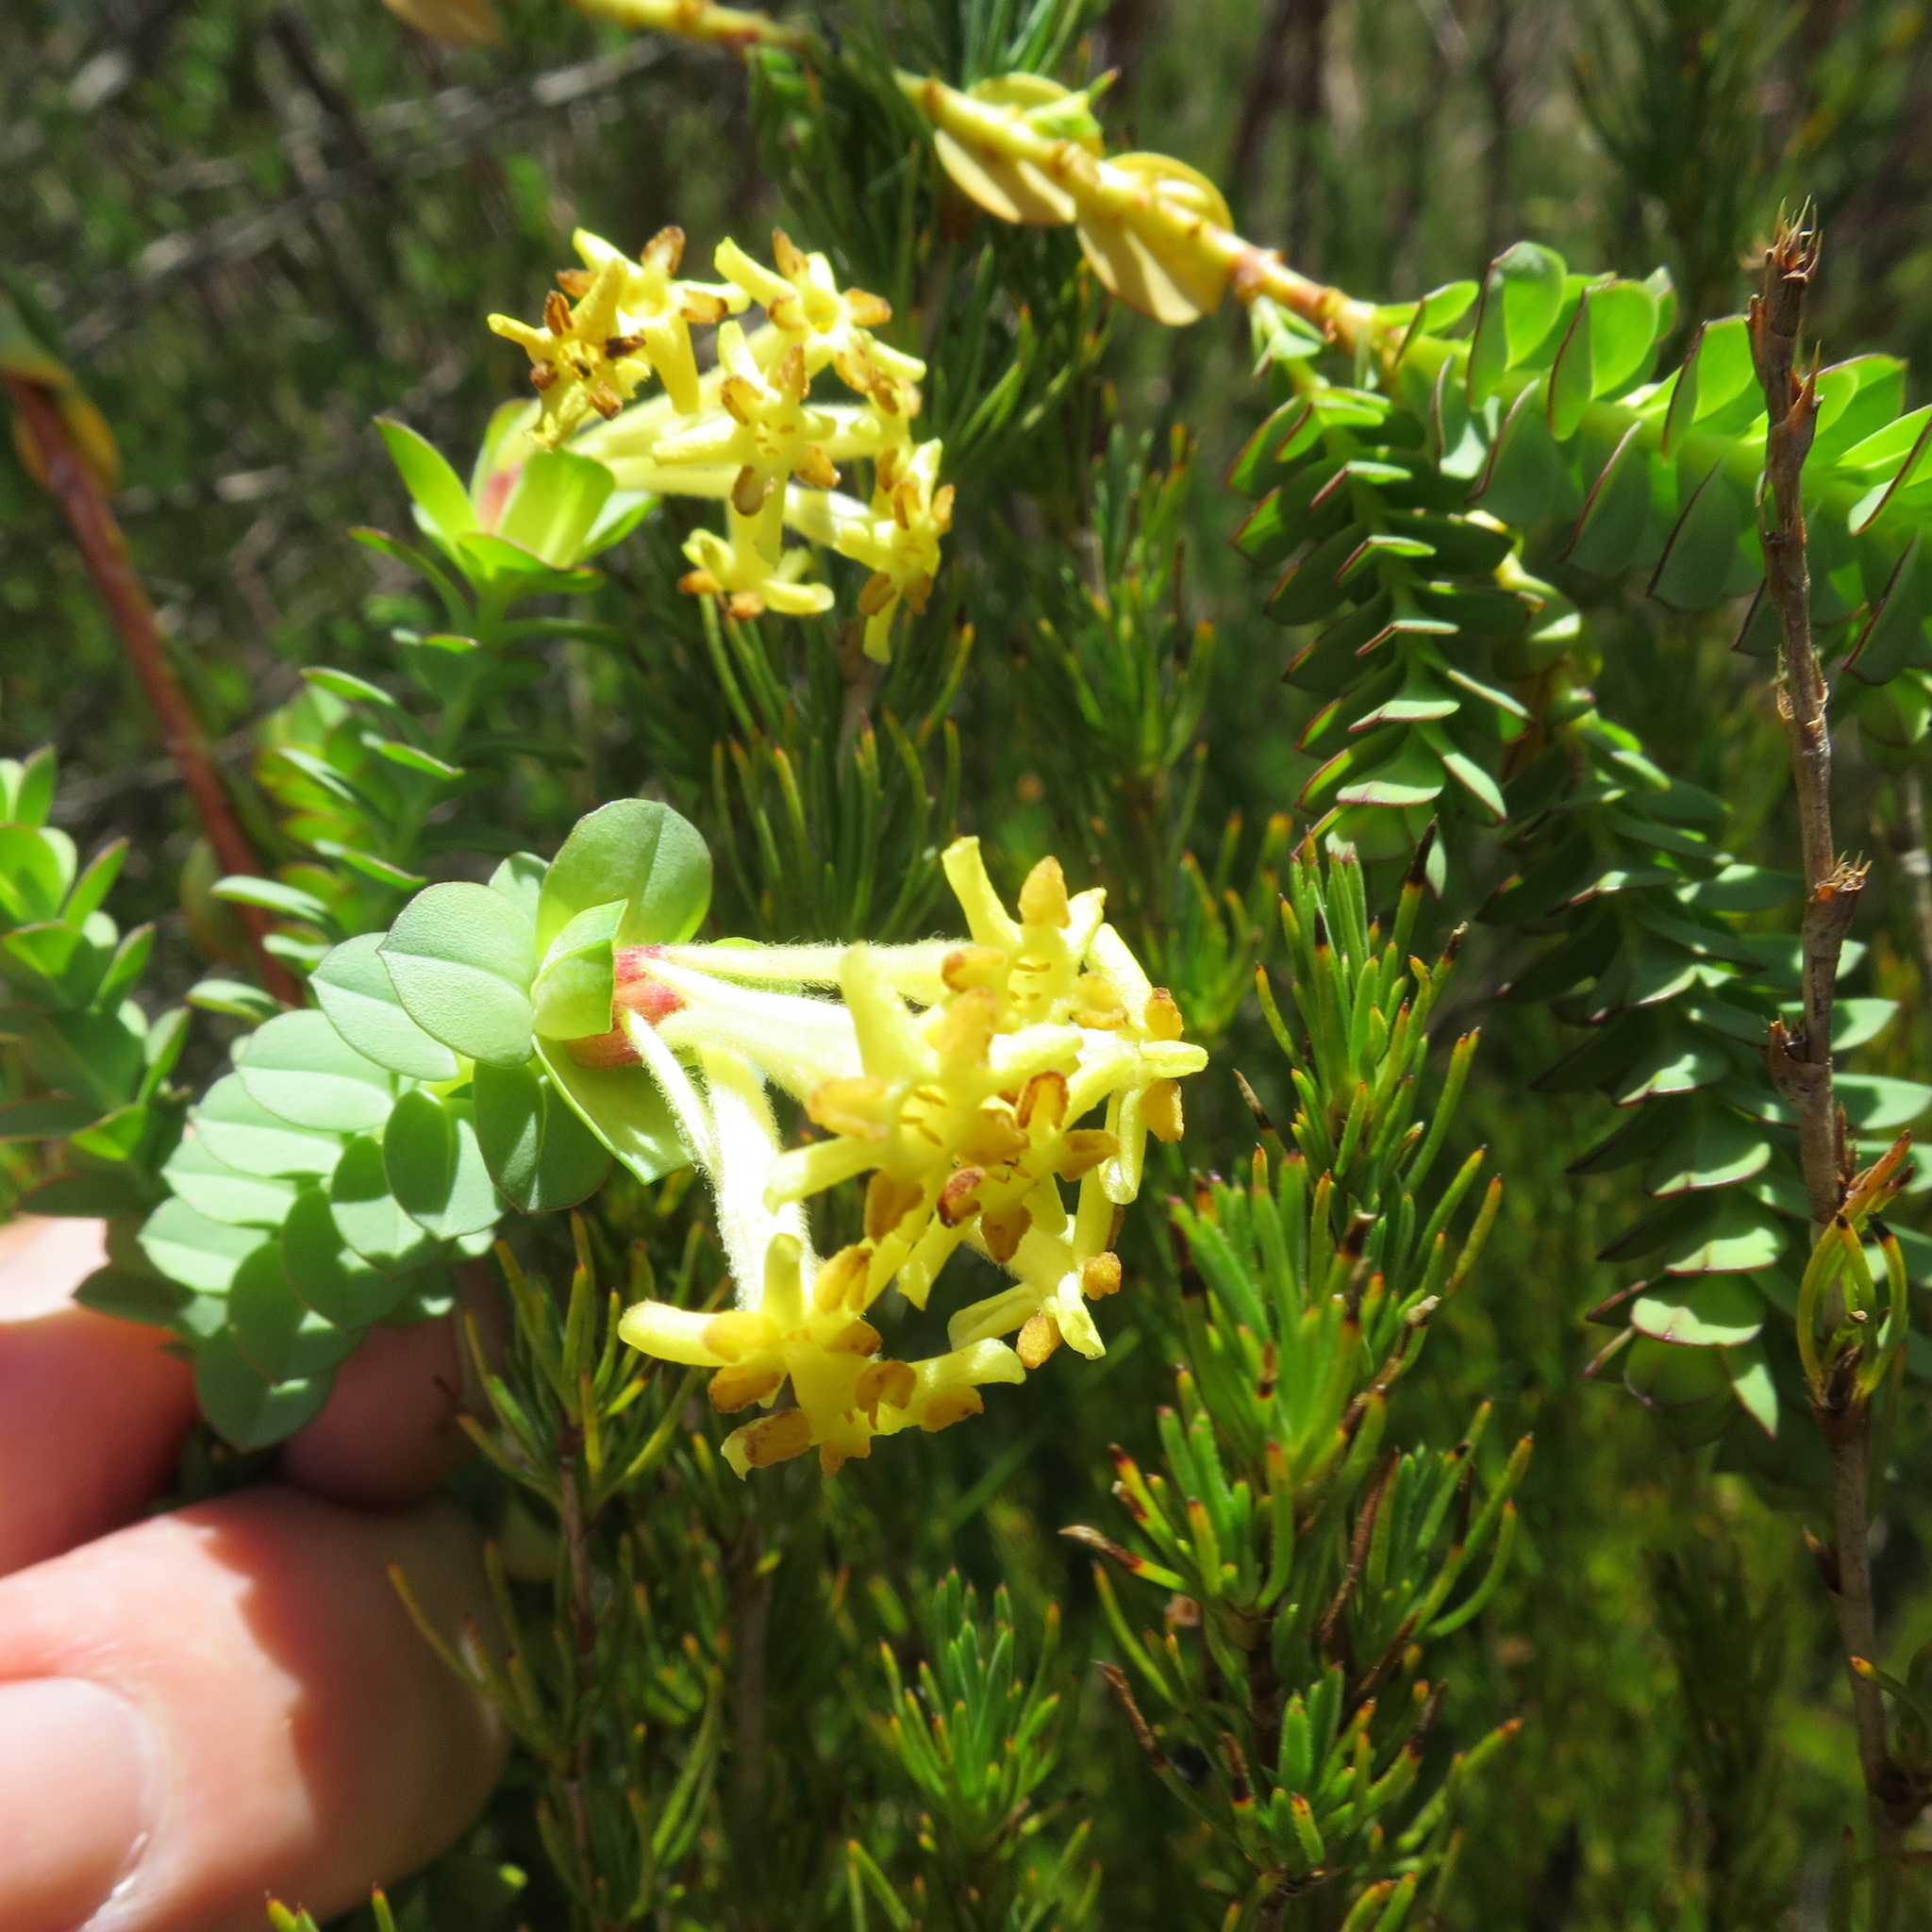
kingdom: Plantae
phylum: Tracheophyta
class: Magnoliopsida
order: Malvales
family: Thymelaeaceae
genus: Gnidia
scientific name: Gnidia oppositifolia
